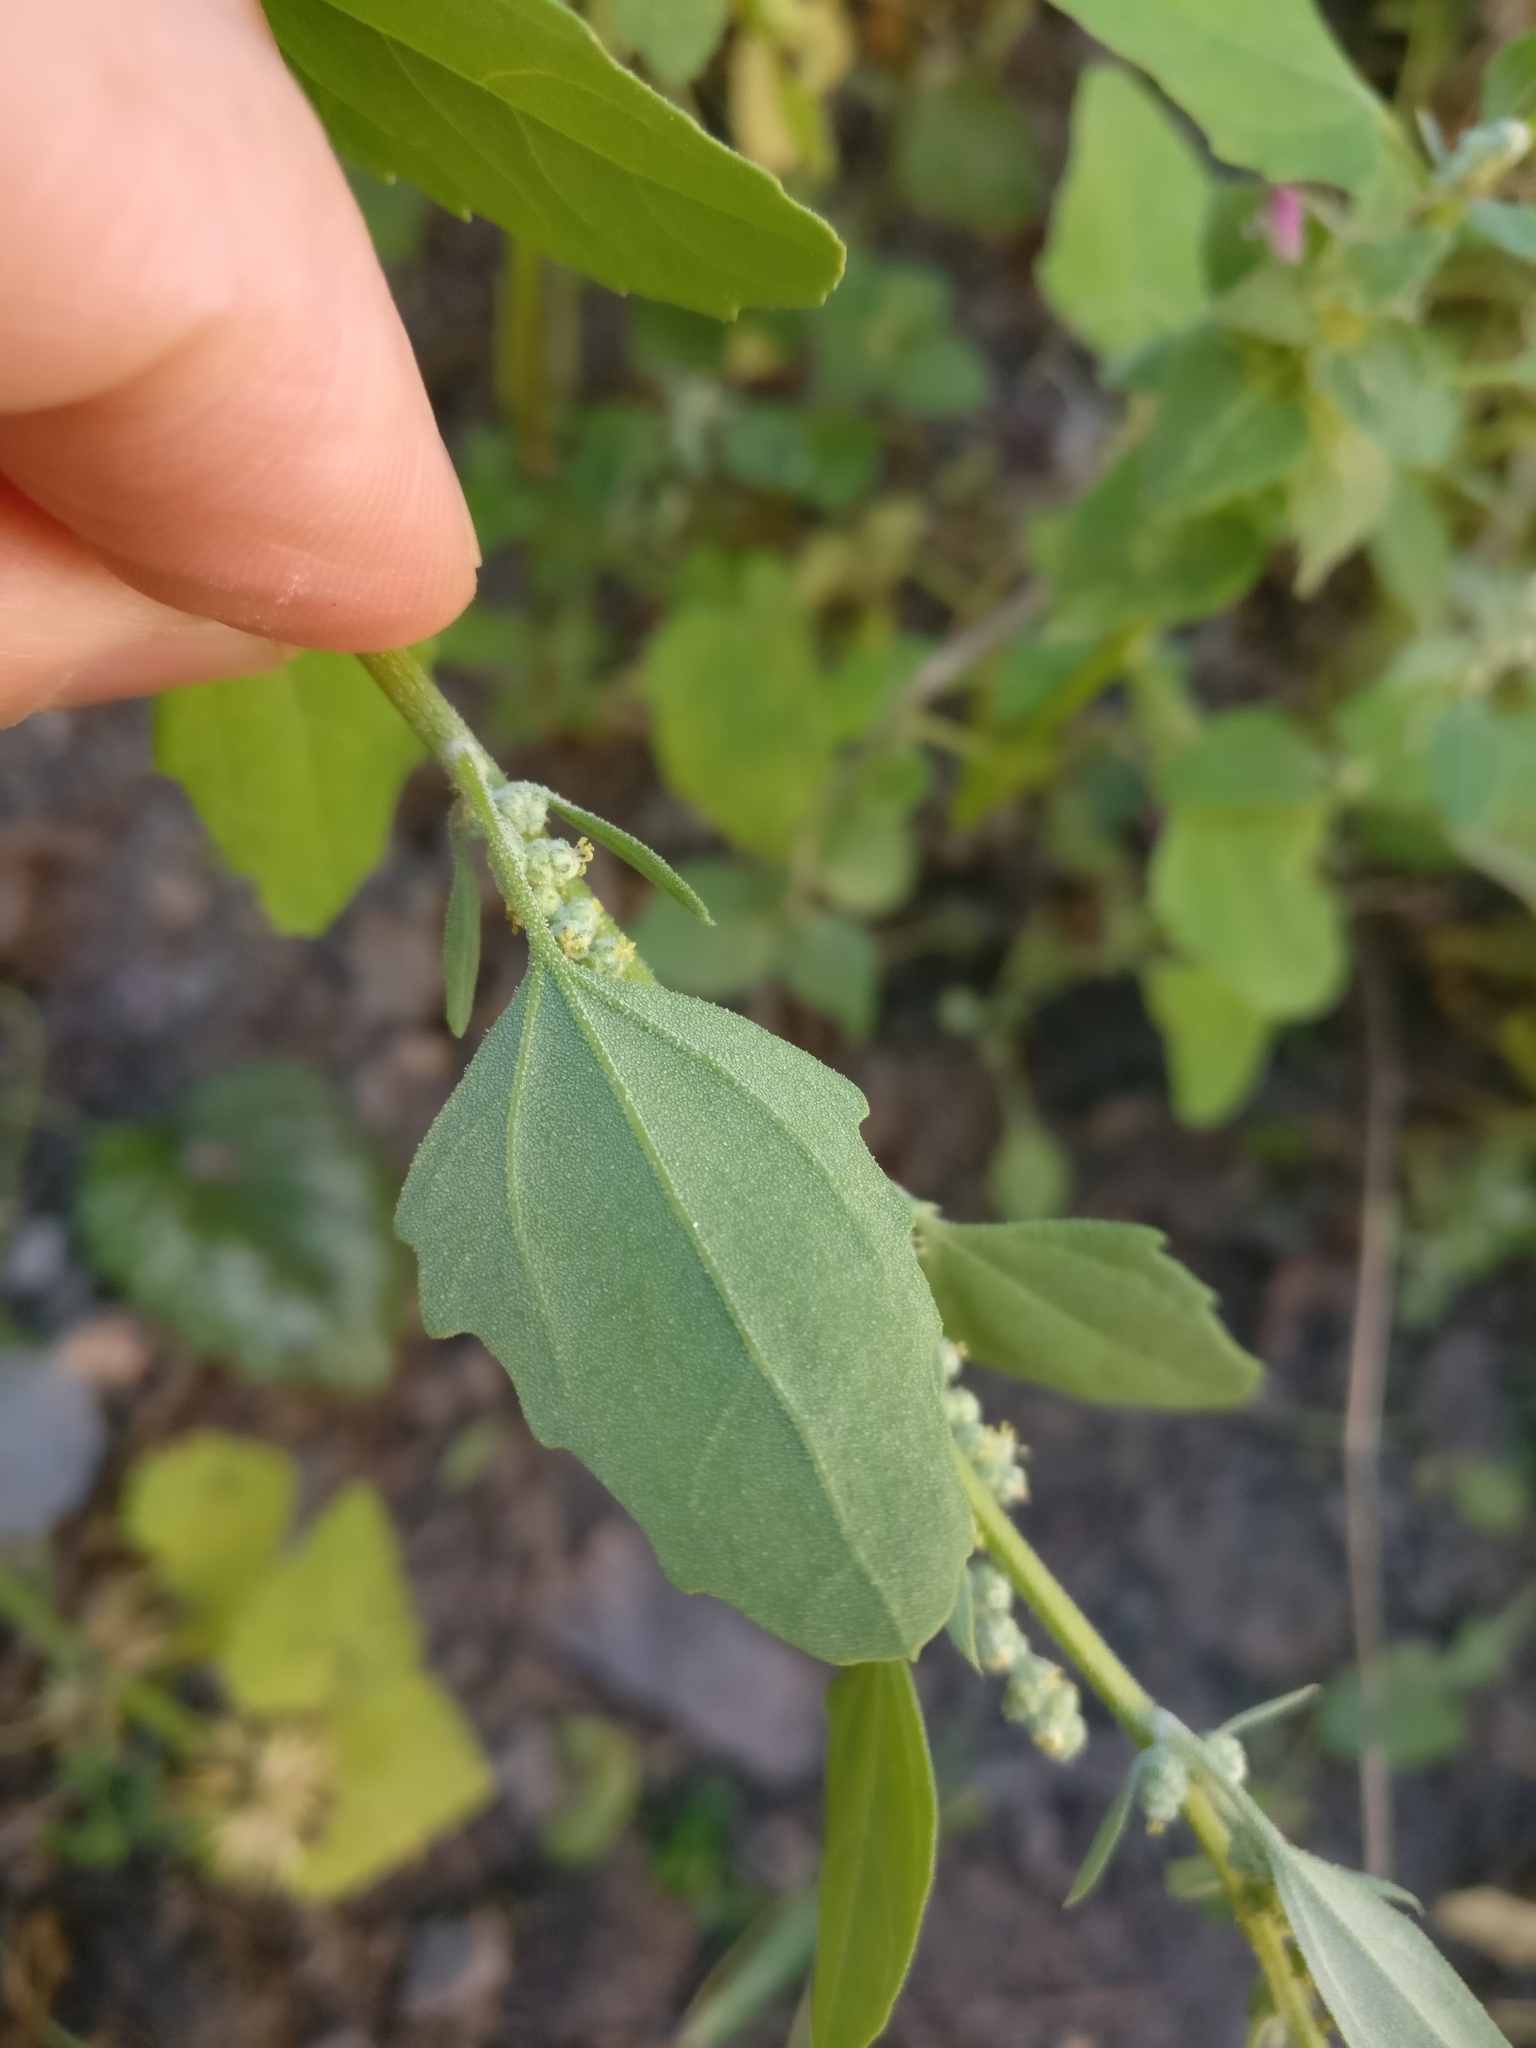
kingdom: Plantae
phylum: Tracheophyta
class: Magnoliopsida
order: Caryophyllales
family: Amaranthaceae
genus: Chenopodium
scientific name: Chenopodium album
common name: Fat-hen
